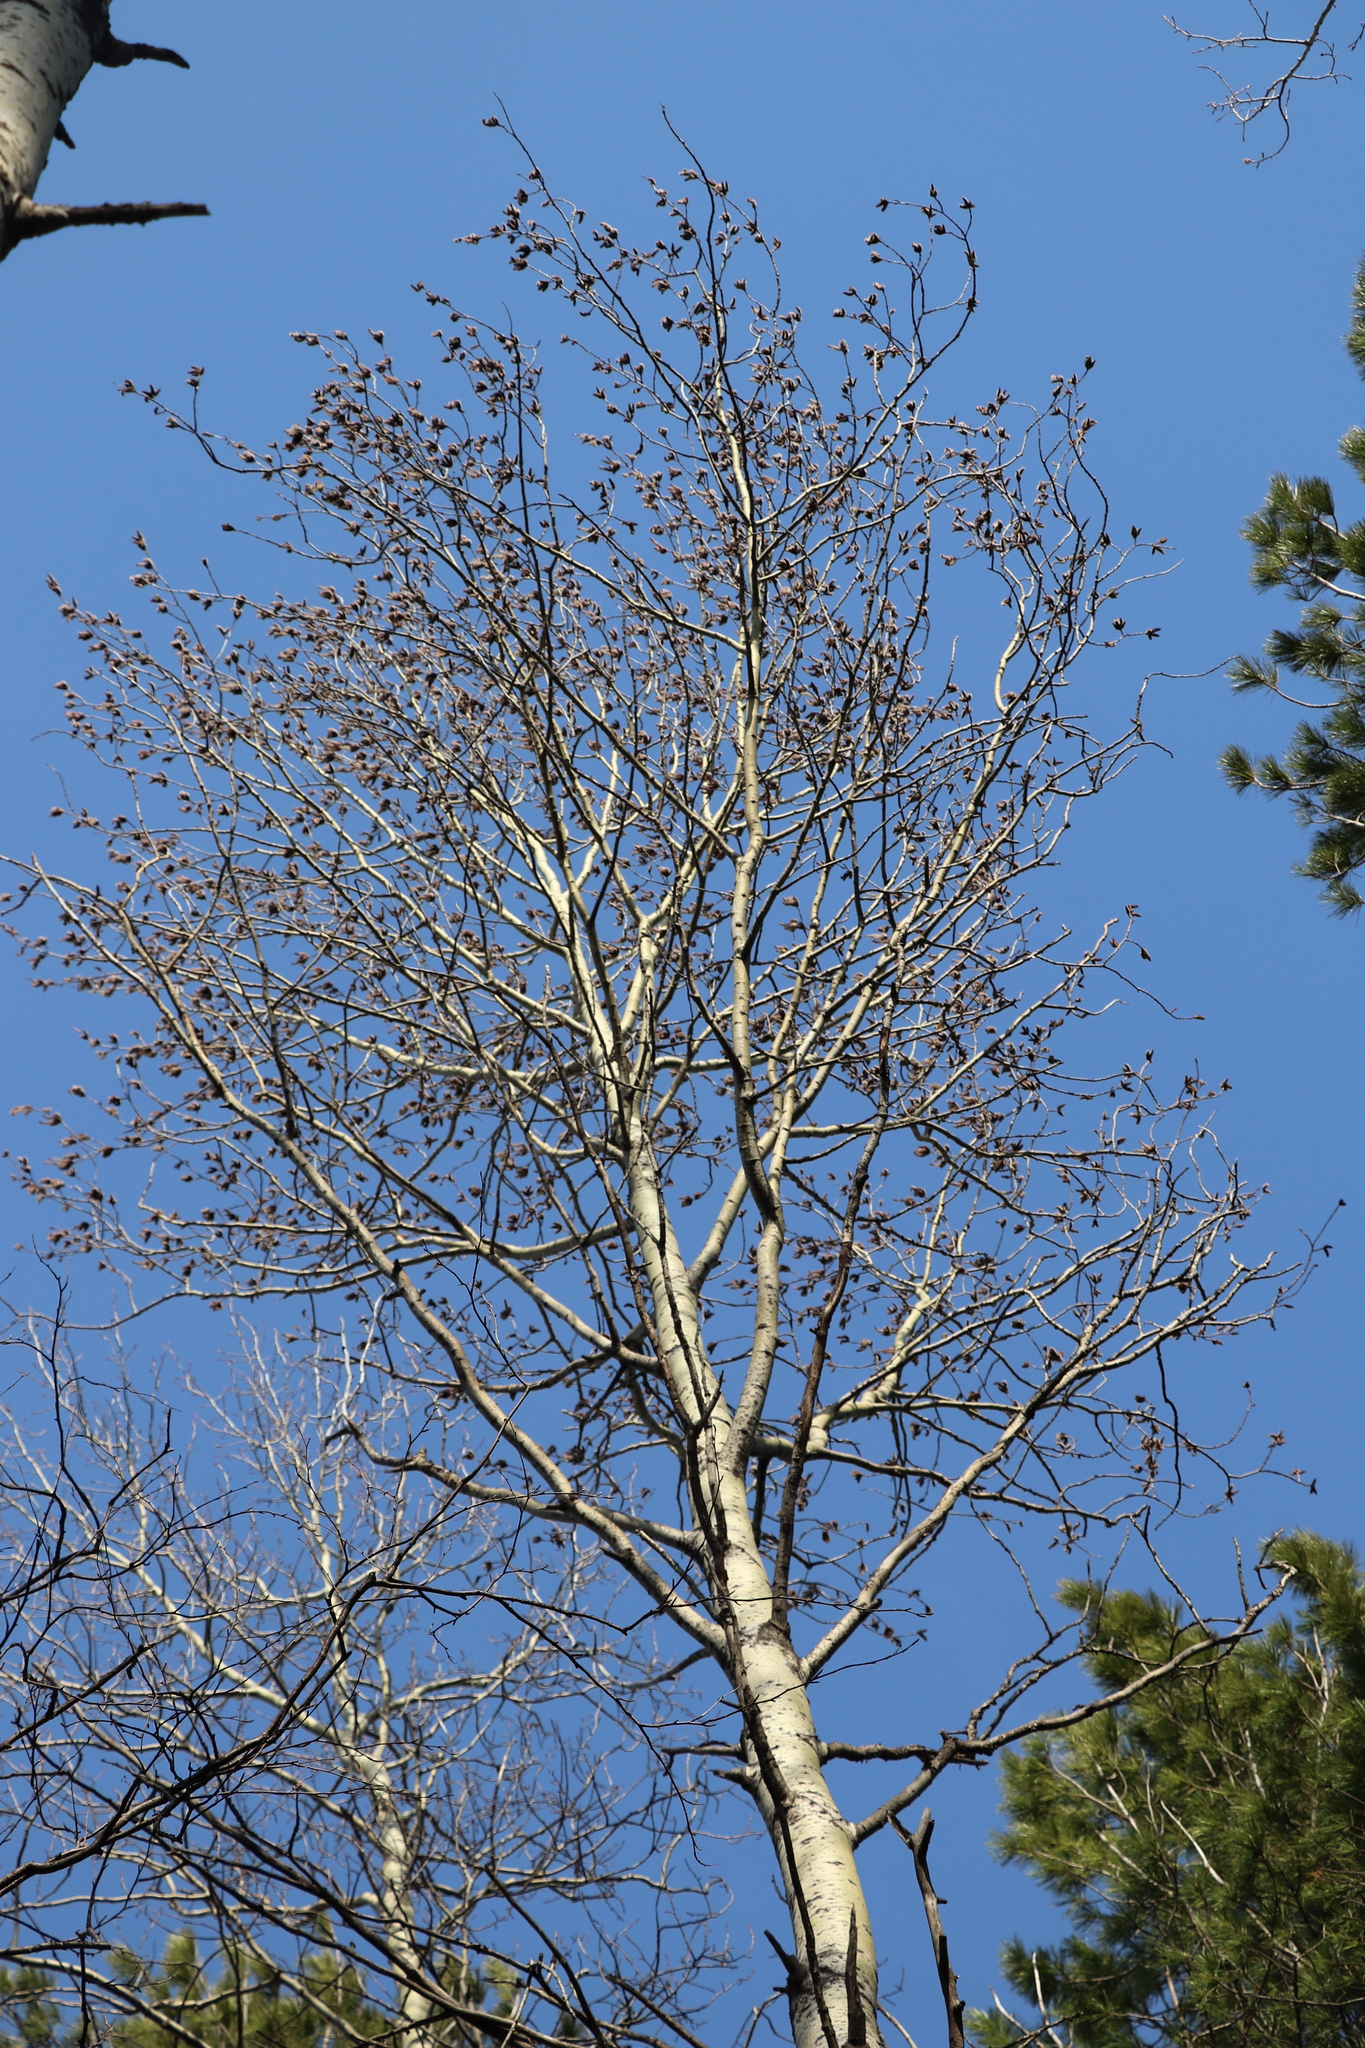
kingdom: Plantae
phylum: Tracheophyta
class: Magnoliopsida
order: Malpighiales
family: Salicaceae
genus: Populus
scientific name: Populus tremula
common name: European aspen
